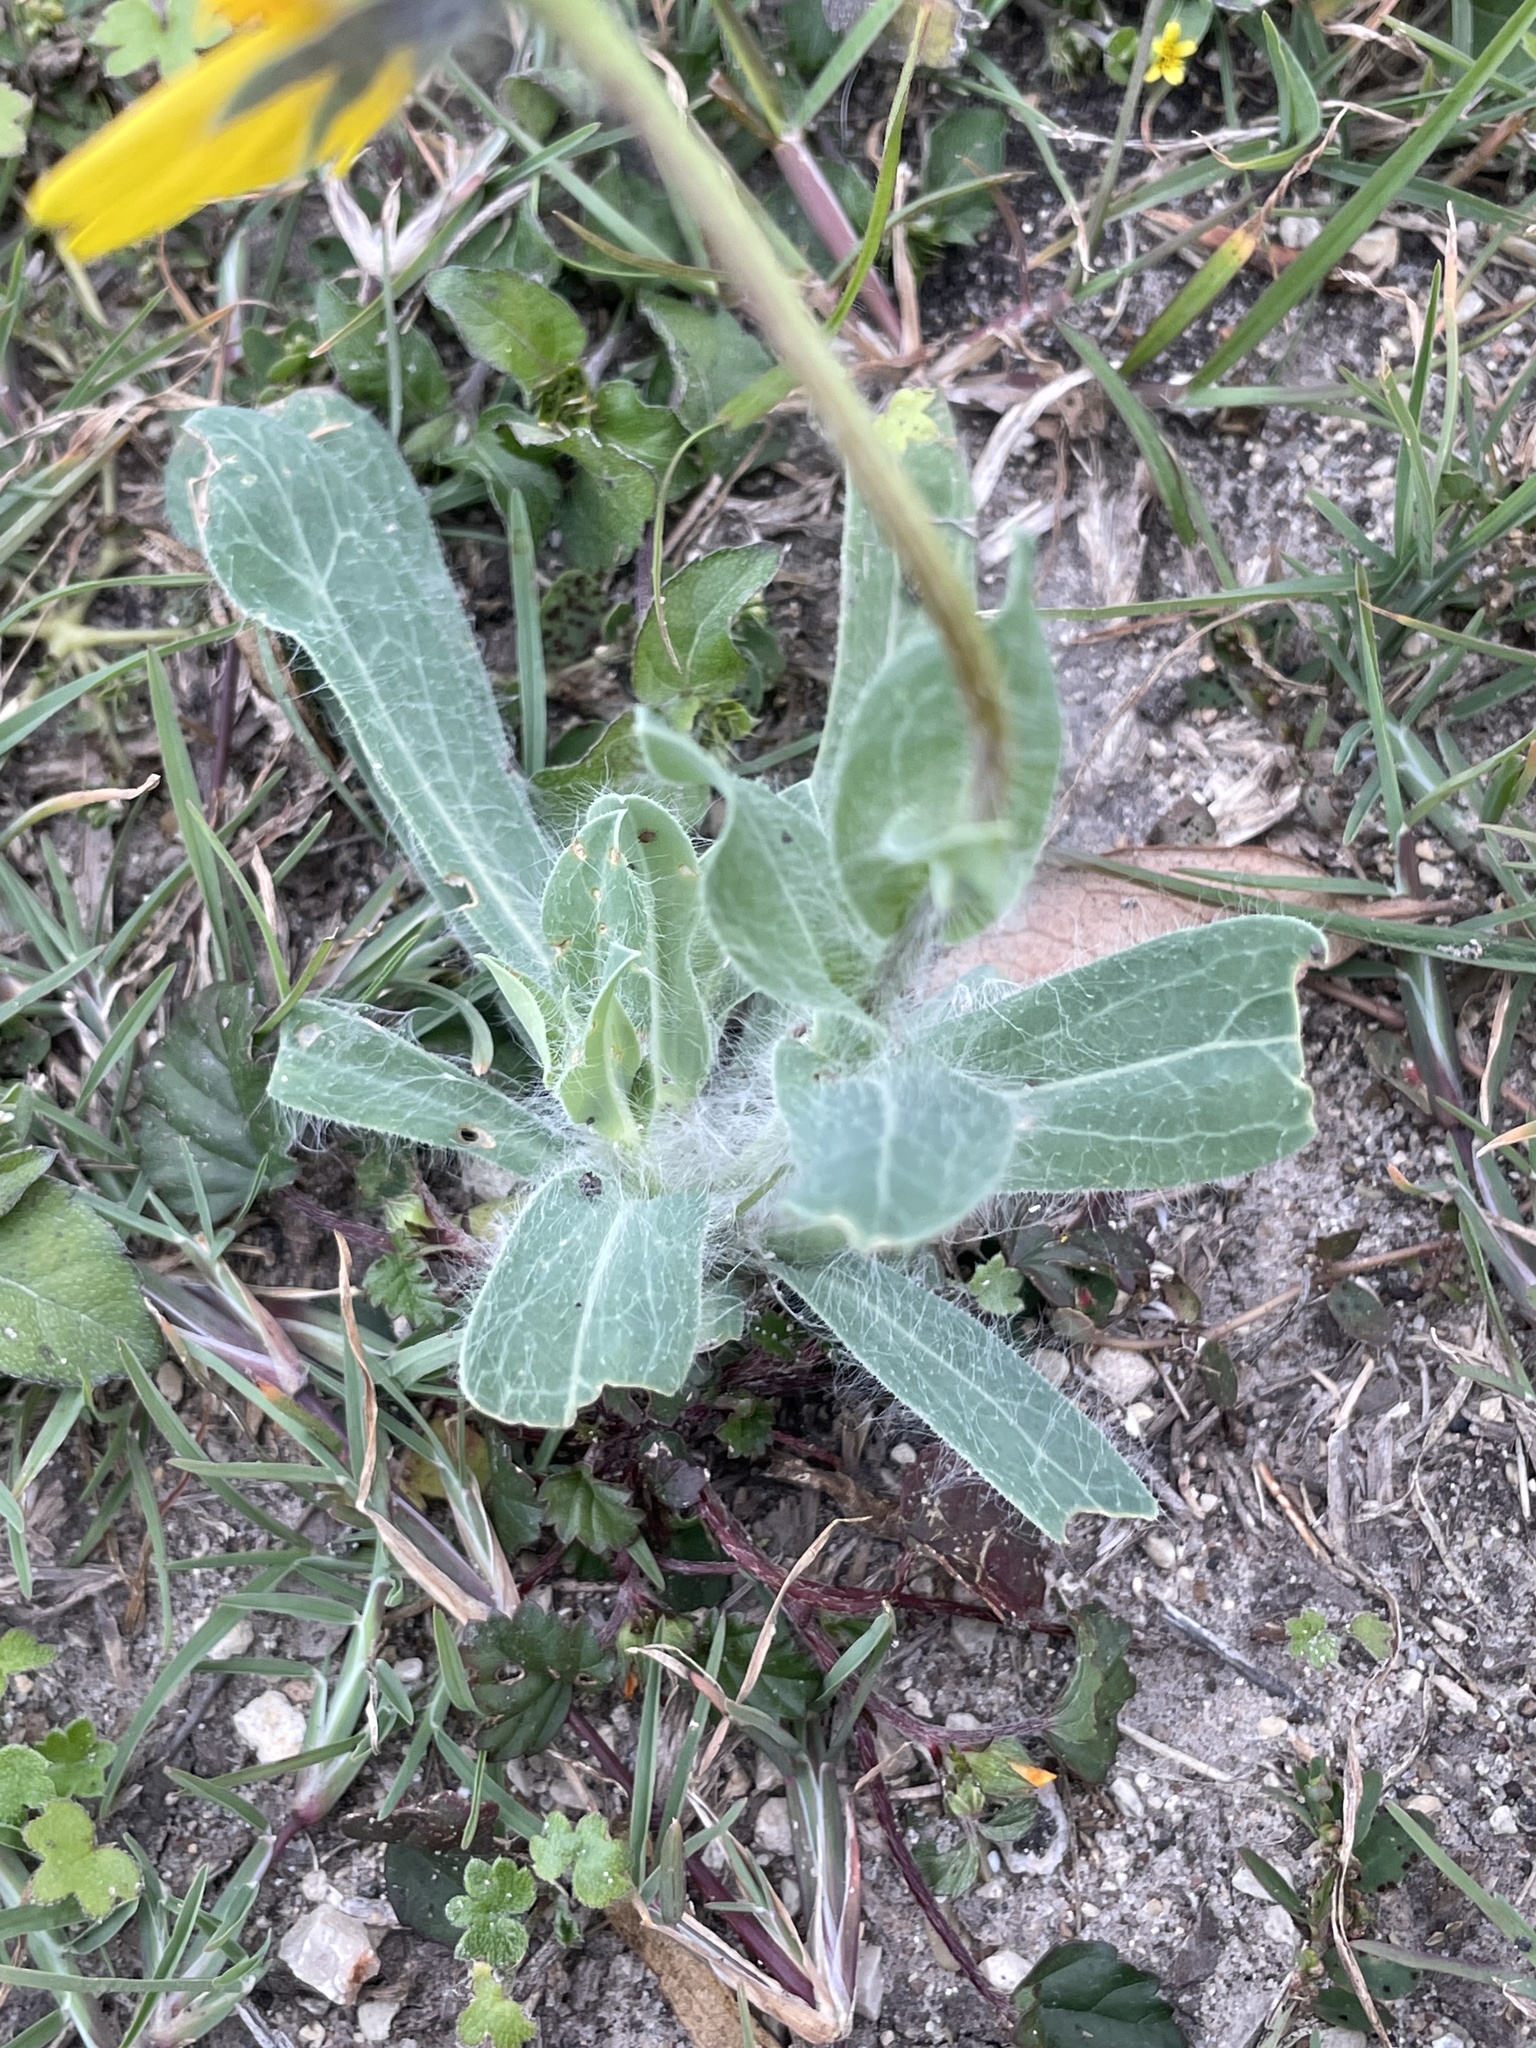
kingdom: Plantae
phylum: Tracheophyta
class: Magnoliopsida
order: Asterales
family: Asteraceae
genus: Amblyolepis
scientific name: Amblyolepis setigera
